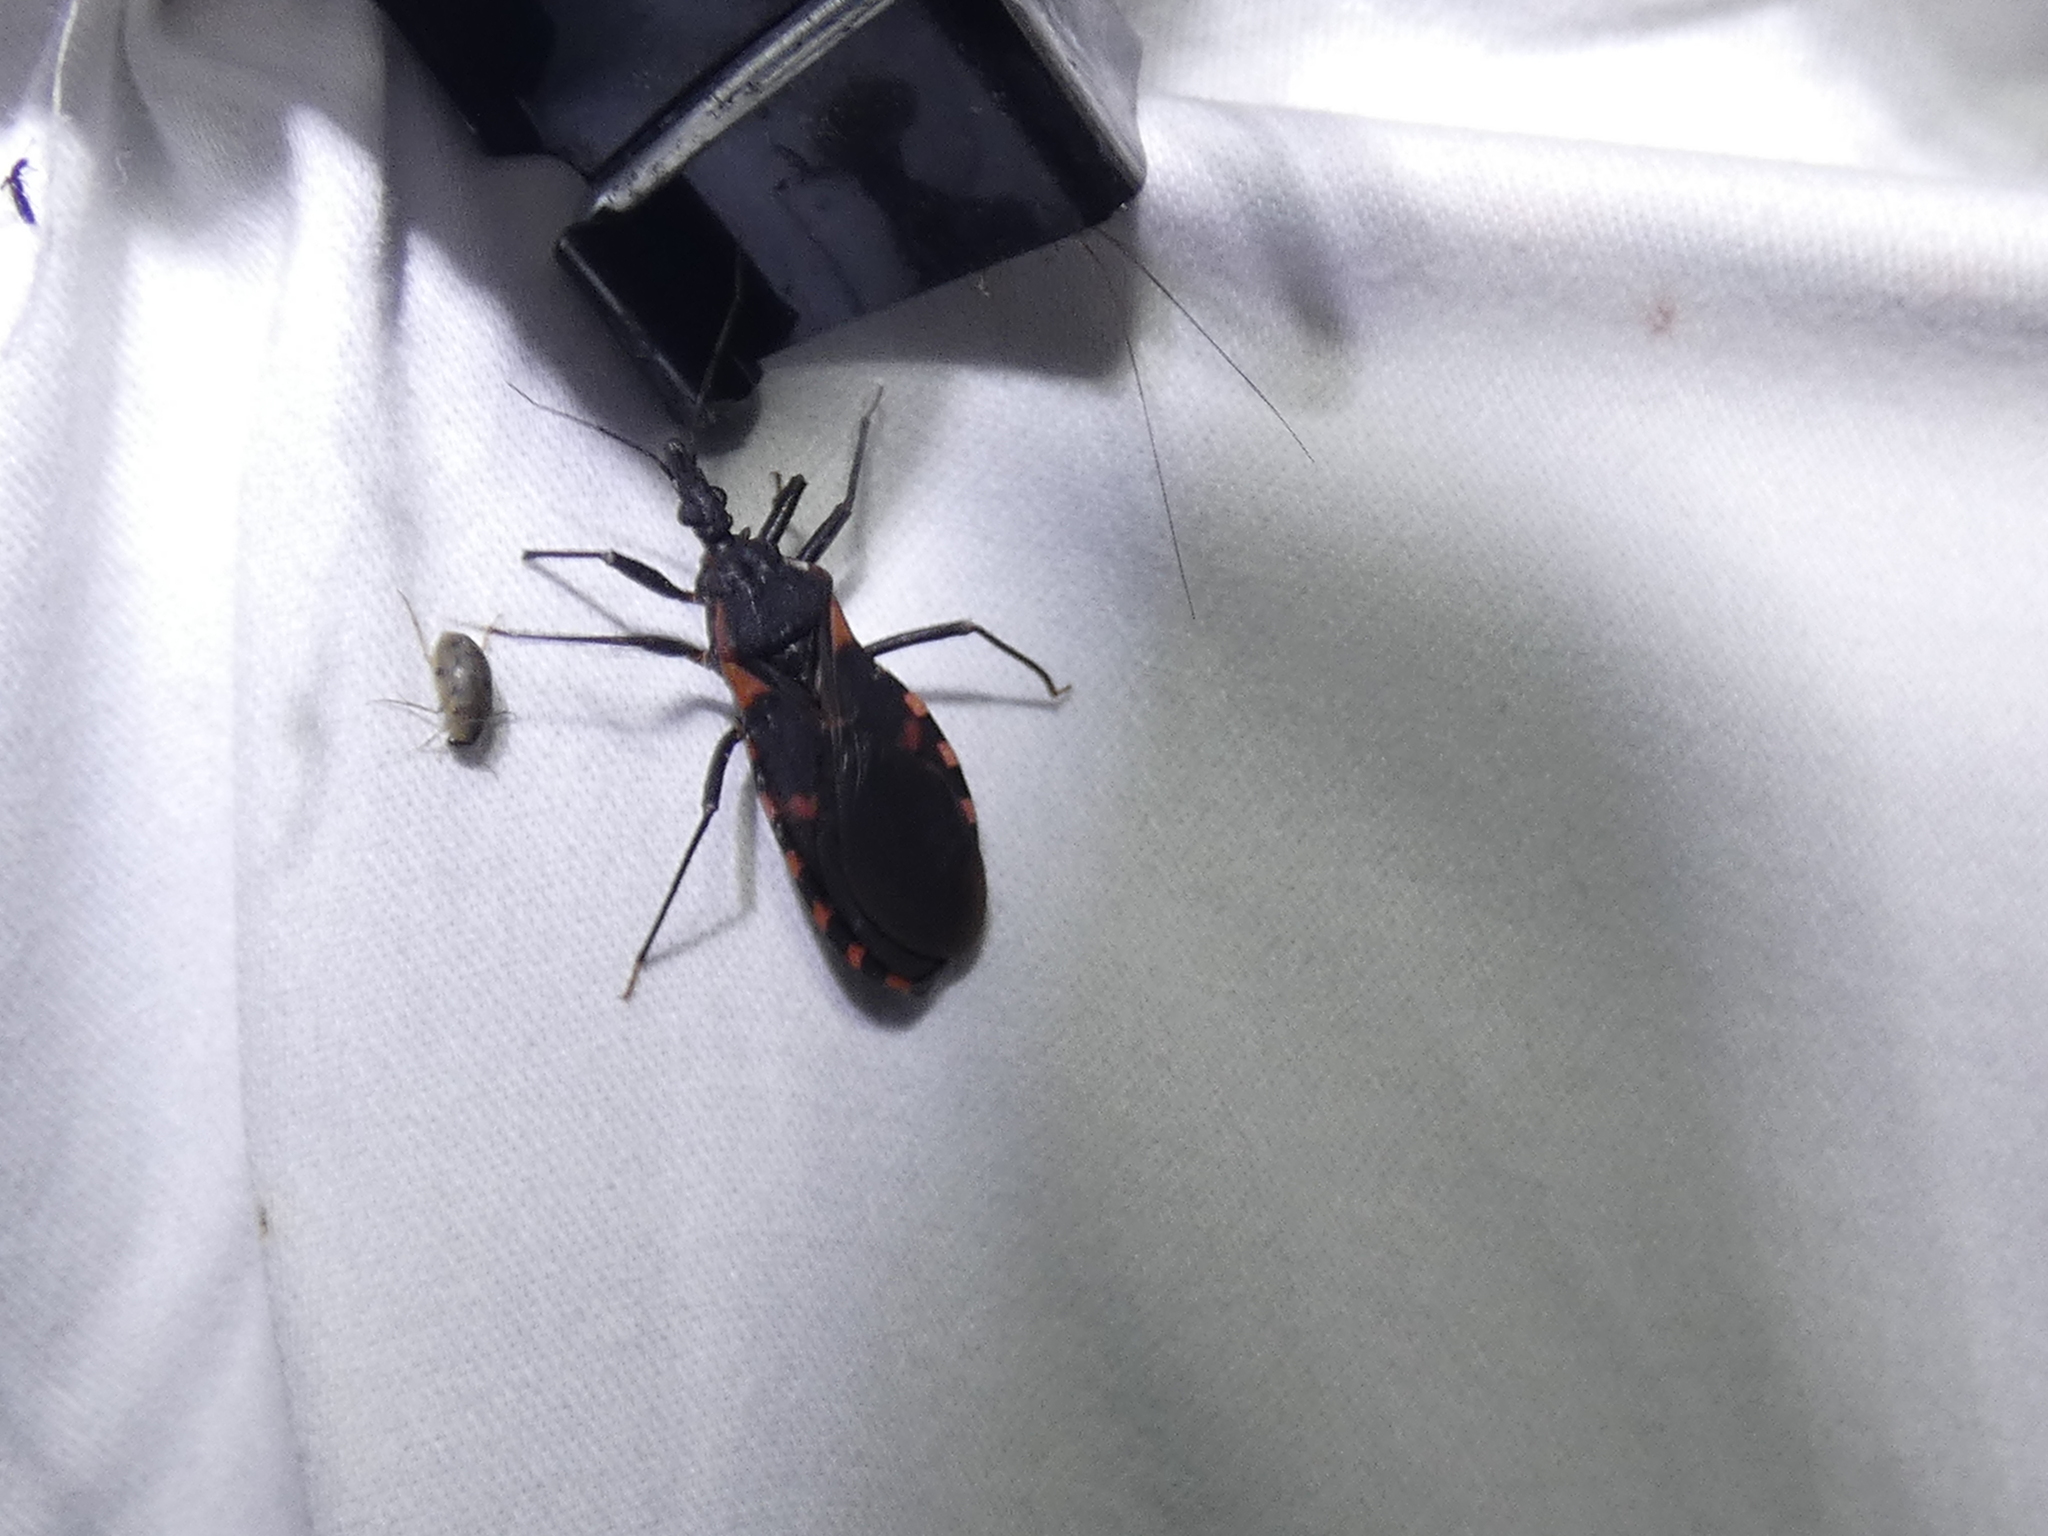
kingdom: Animalia
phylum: Arthropoda
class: Insecta
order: Hemiptera
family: Reduviidae
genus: Triatoma
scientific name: Triatoma sanguisuga
